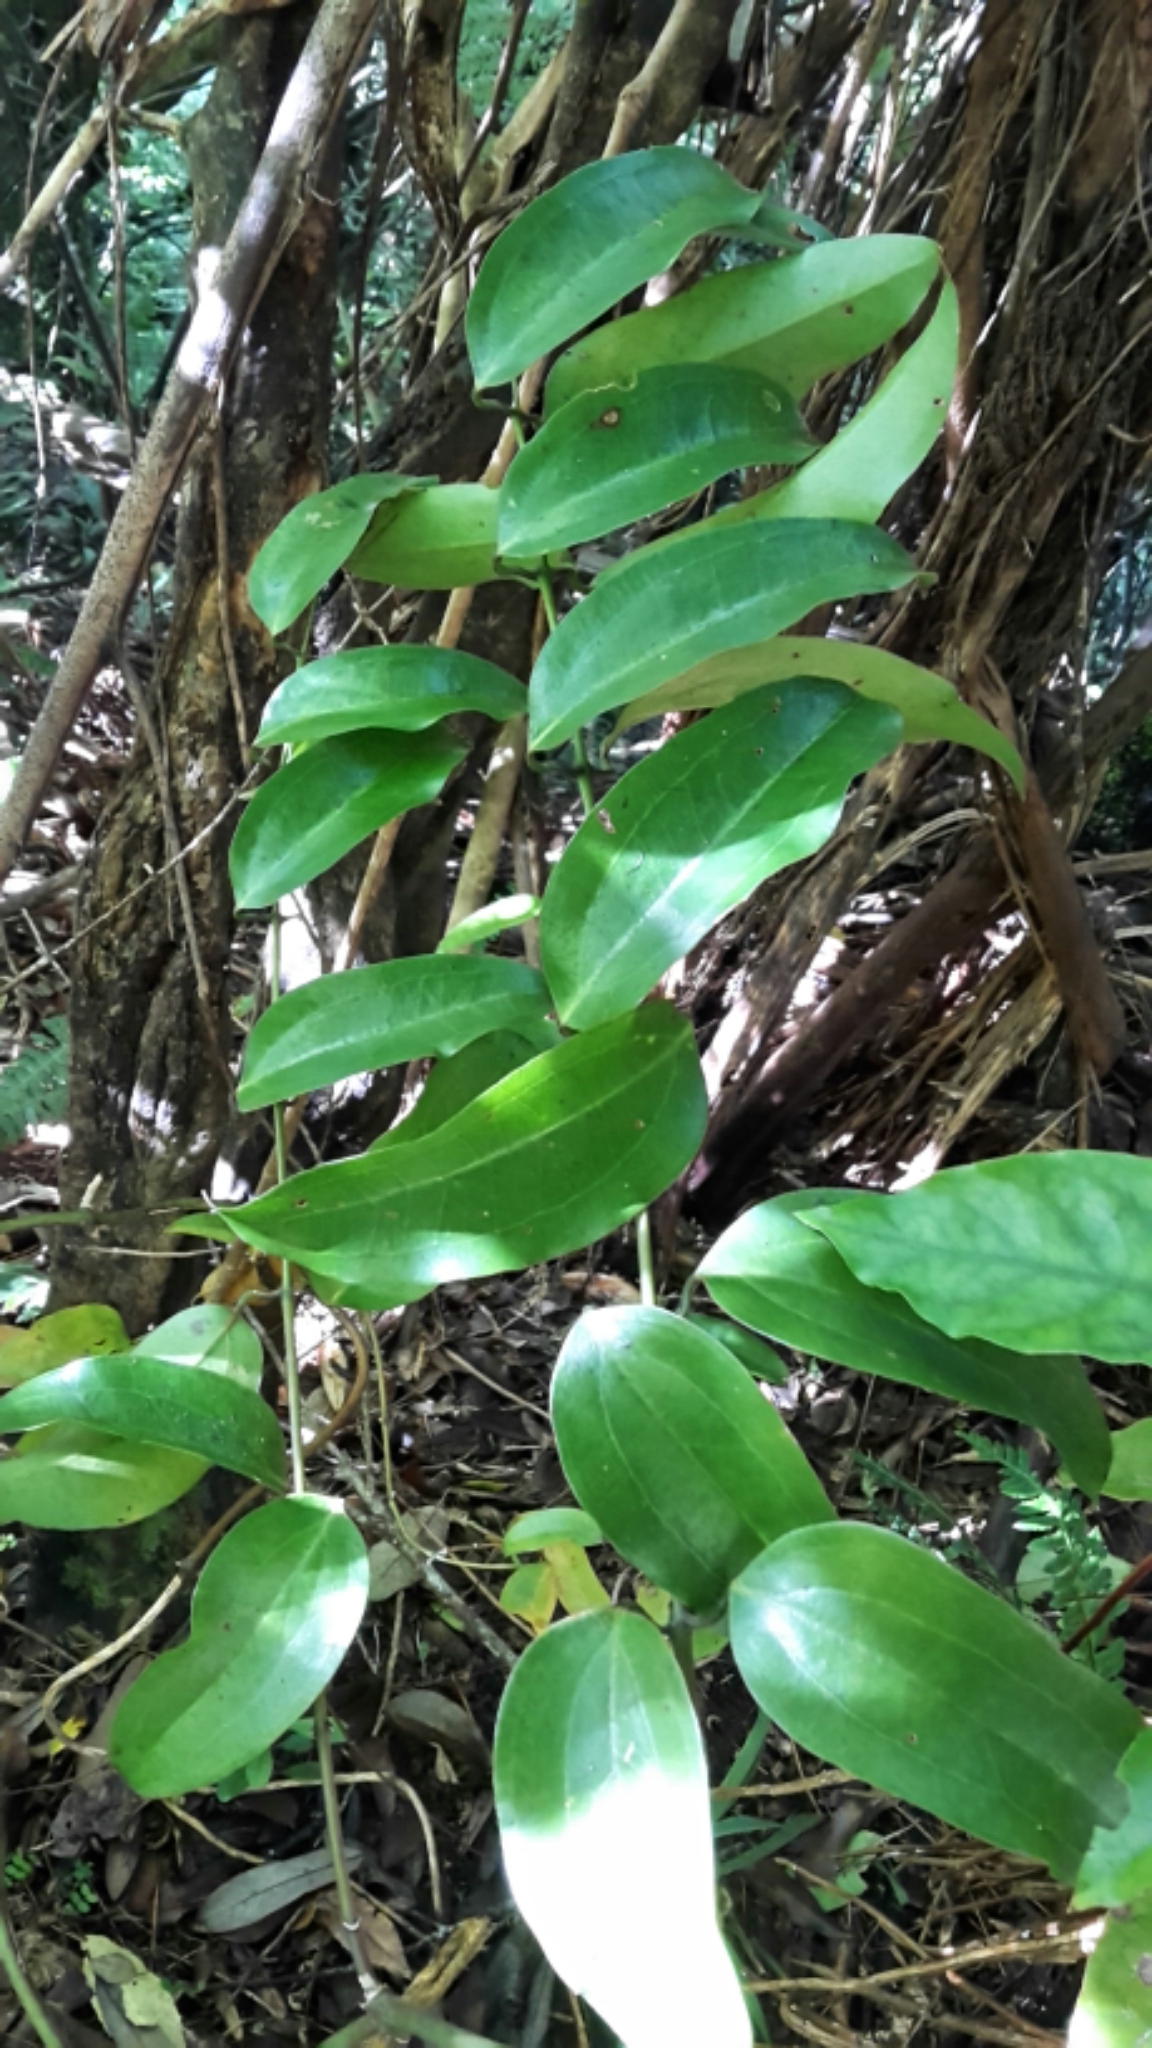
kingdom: Plantae
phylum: Tracheophyta
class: Liliopsida
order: Liliales
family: Ripogonaceae
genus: Ripogonum
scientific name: Ripogonum scandens
